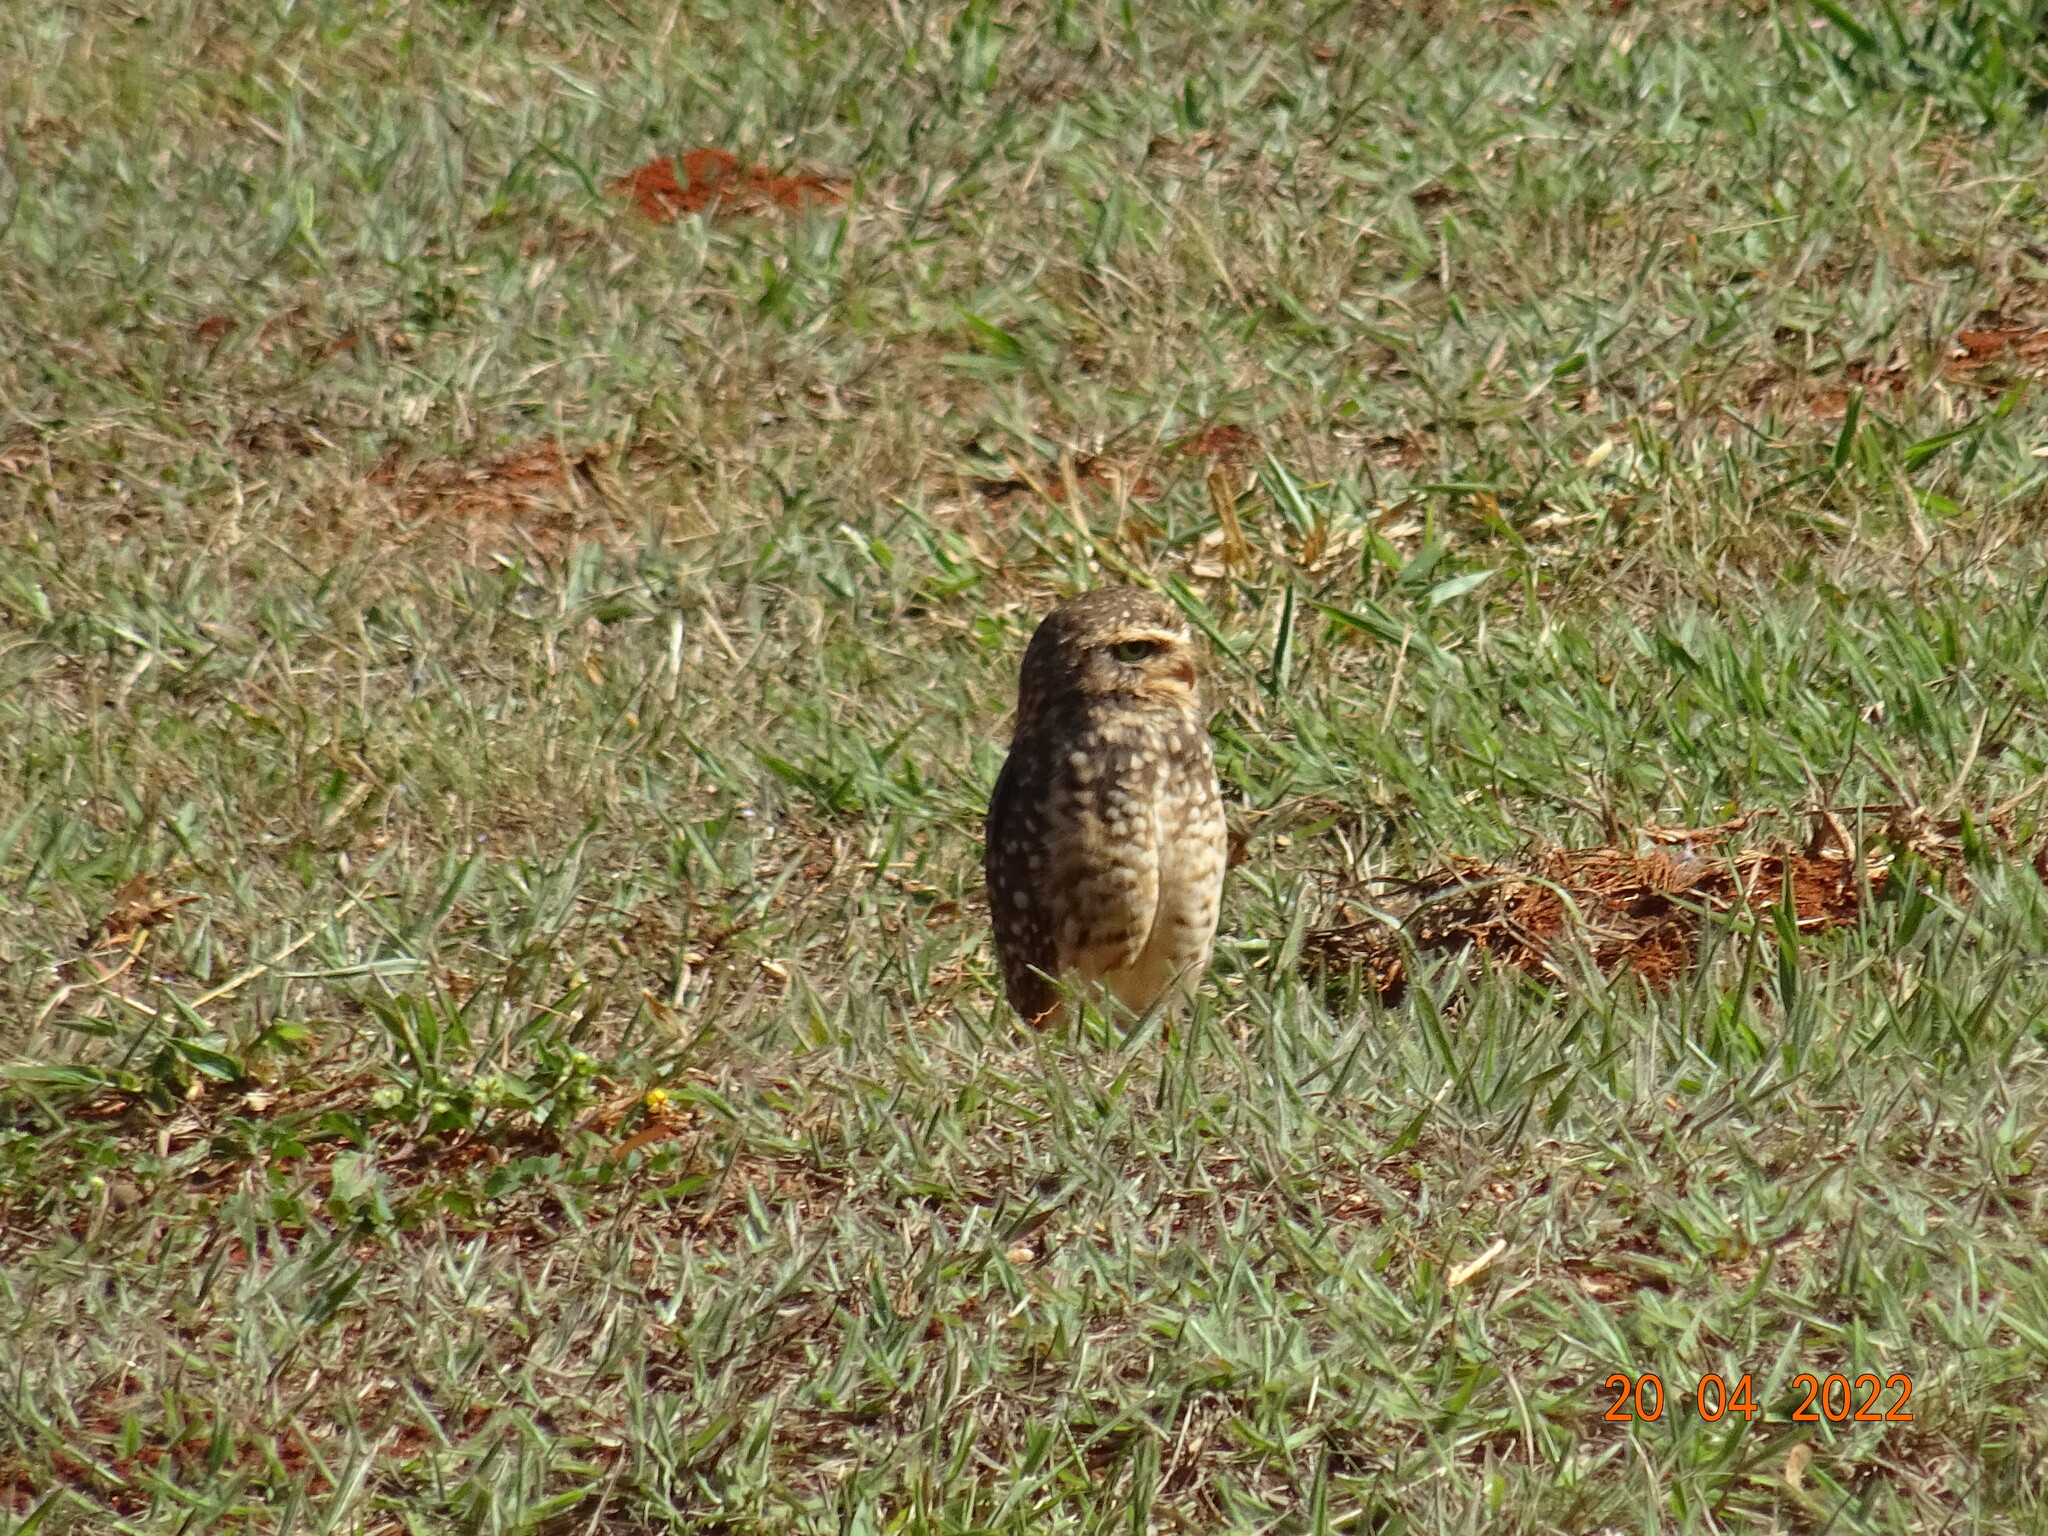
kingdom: Animalia
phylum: Chordata
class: Aves
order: Strigiformes
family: Strigidae
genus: Athene
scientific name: Athene cunicularia
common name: Burrowing owl
